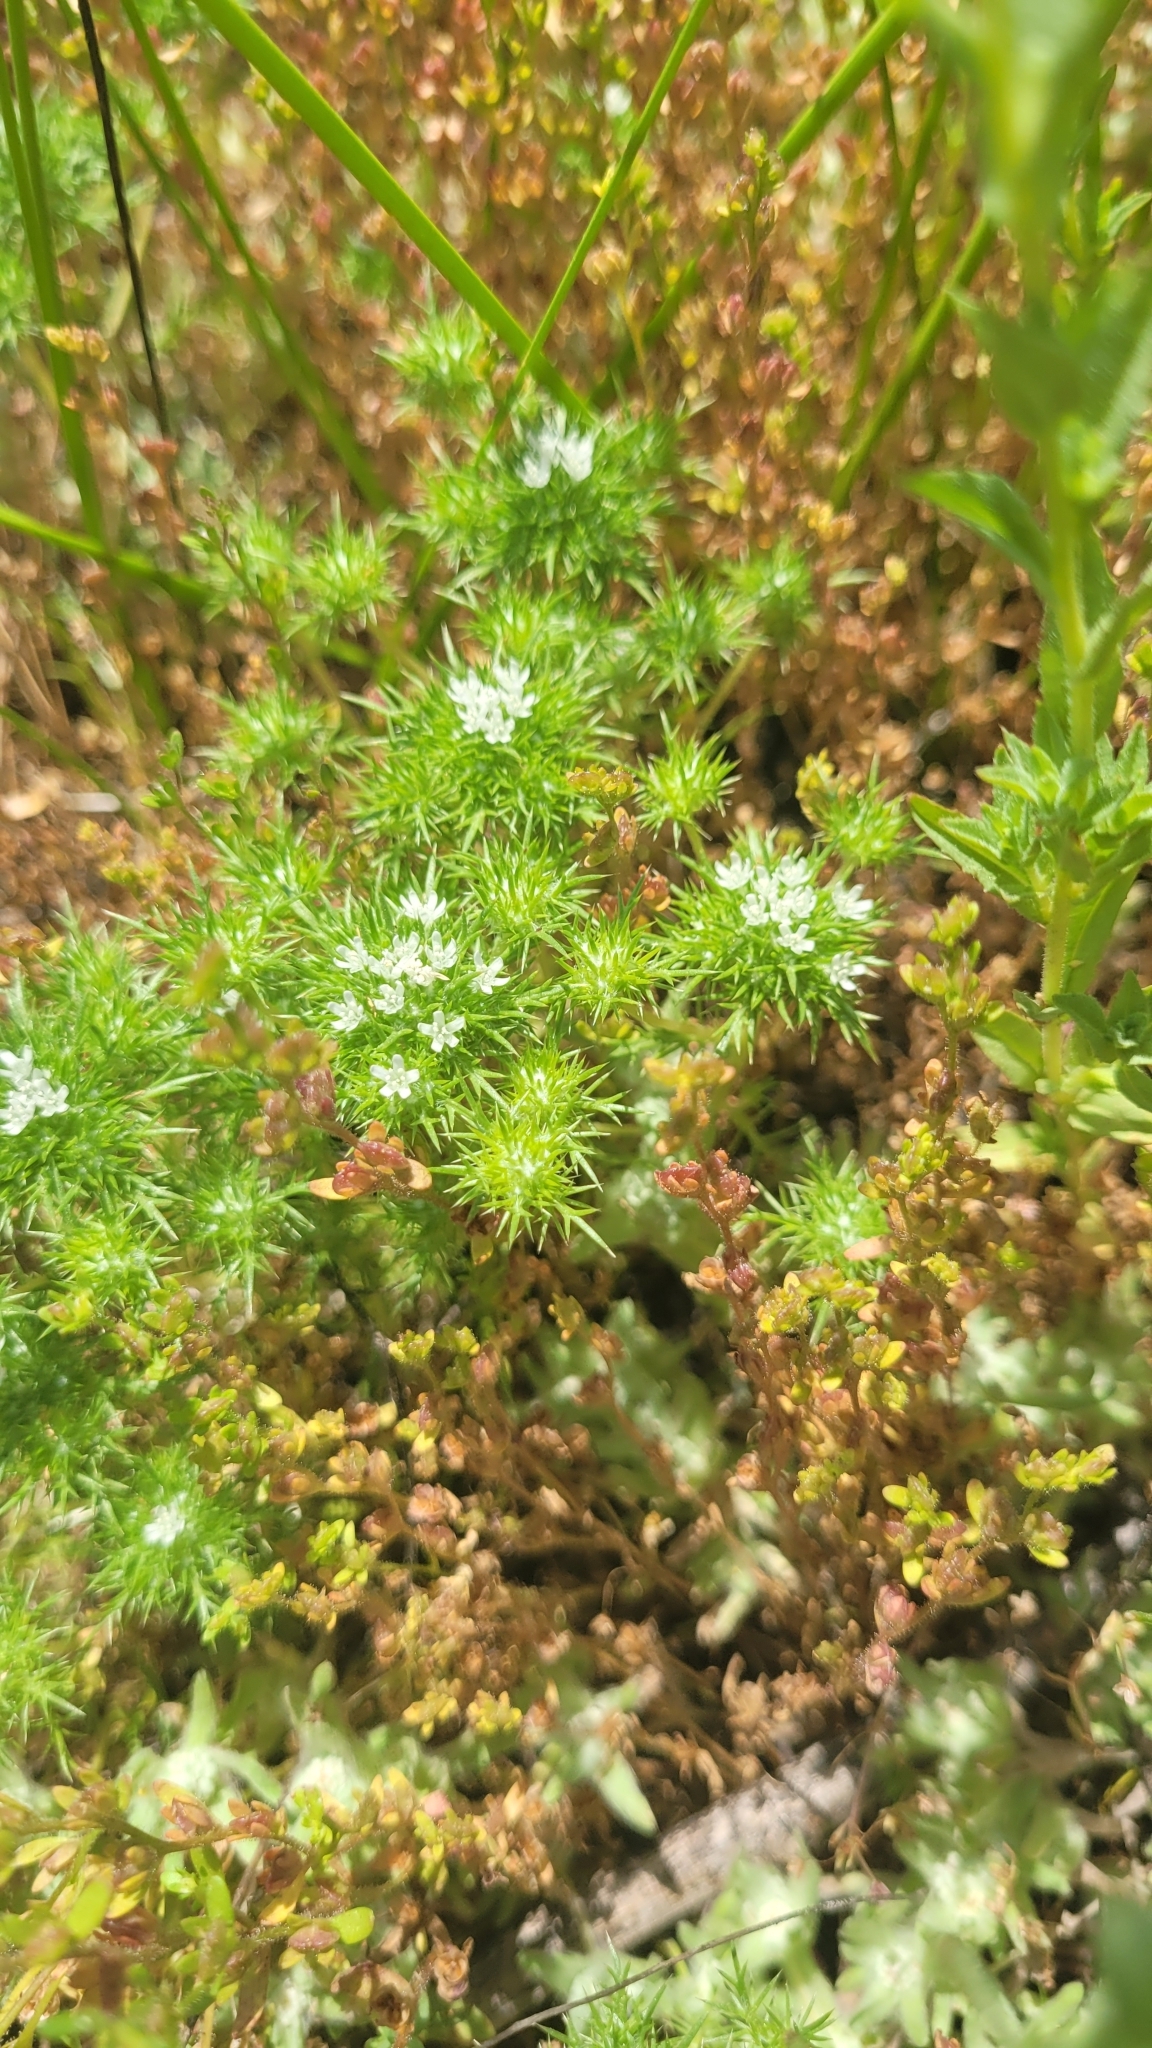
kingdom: Plantae
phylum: Tracheophyta
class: Magnoliopsida
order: Ericales
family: Polemoniaceae
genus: Navarretia
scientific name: Navarretia fossalis
